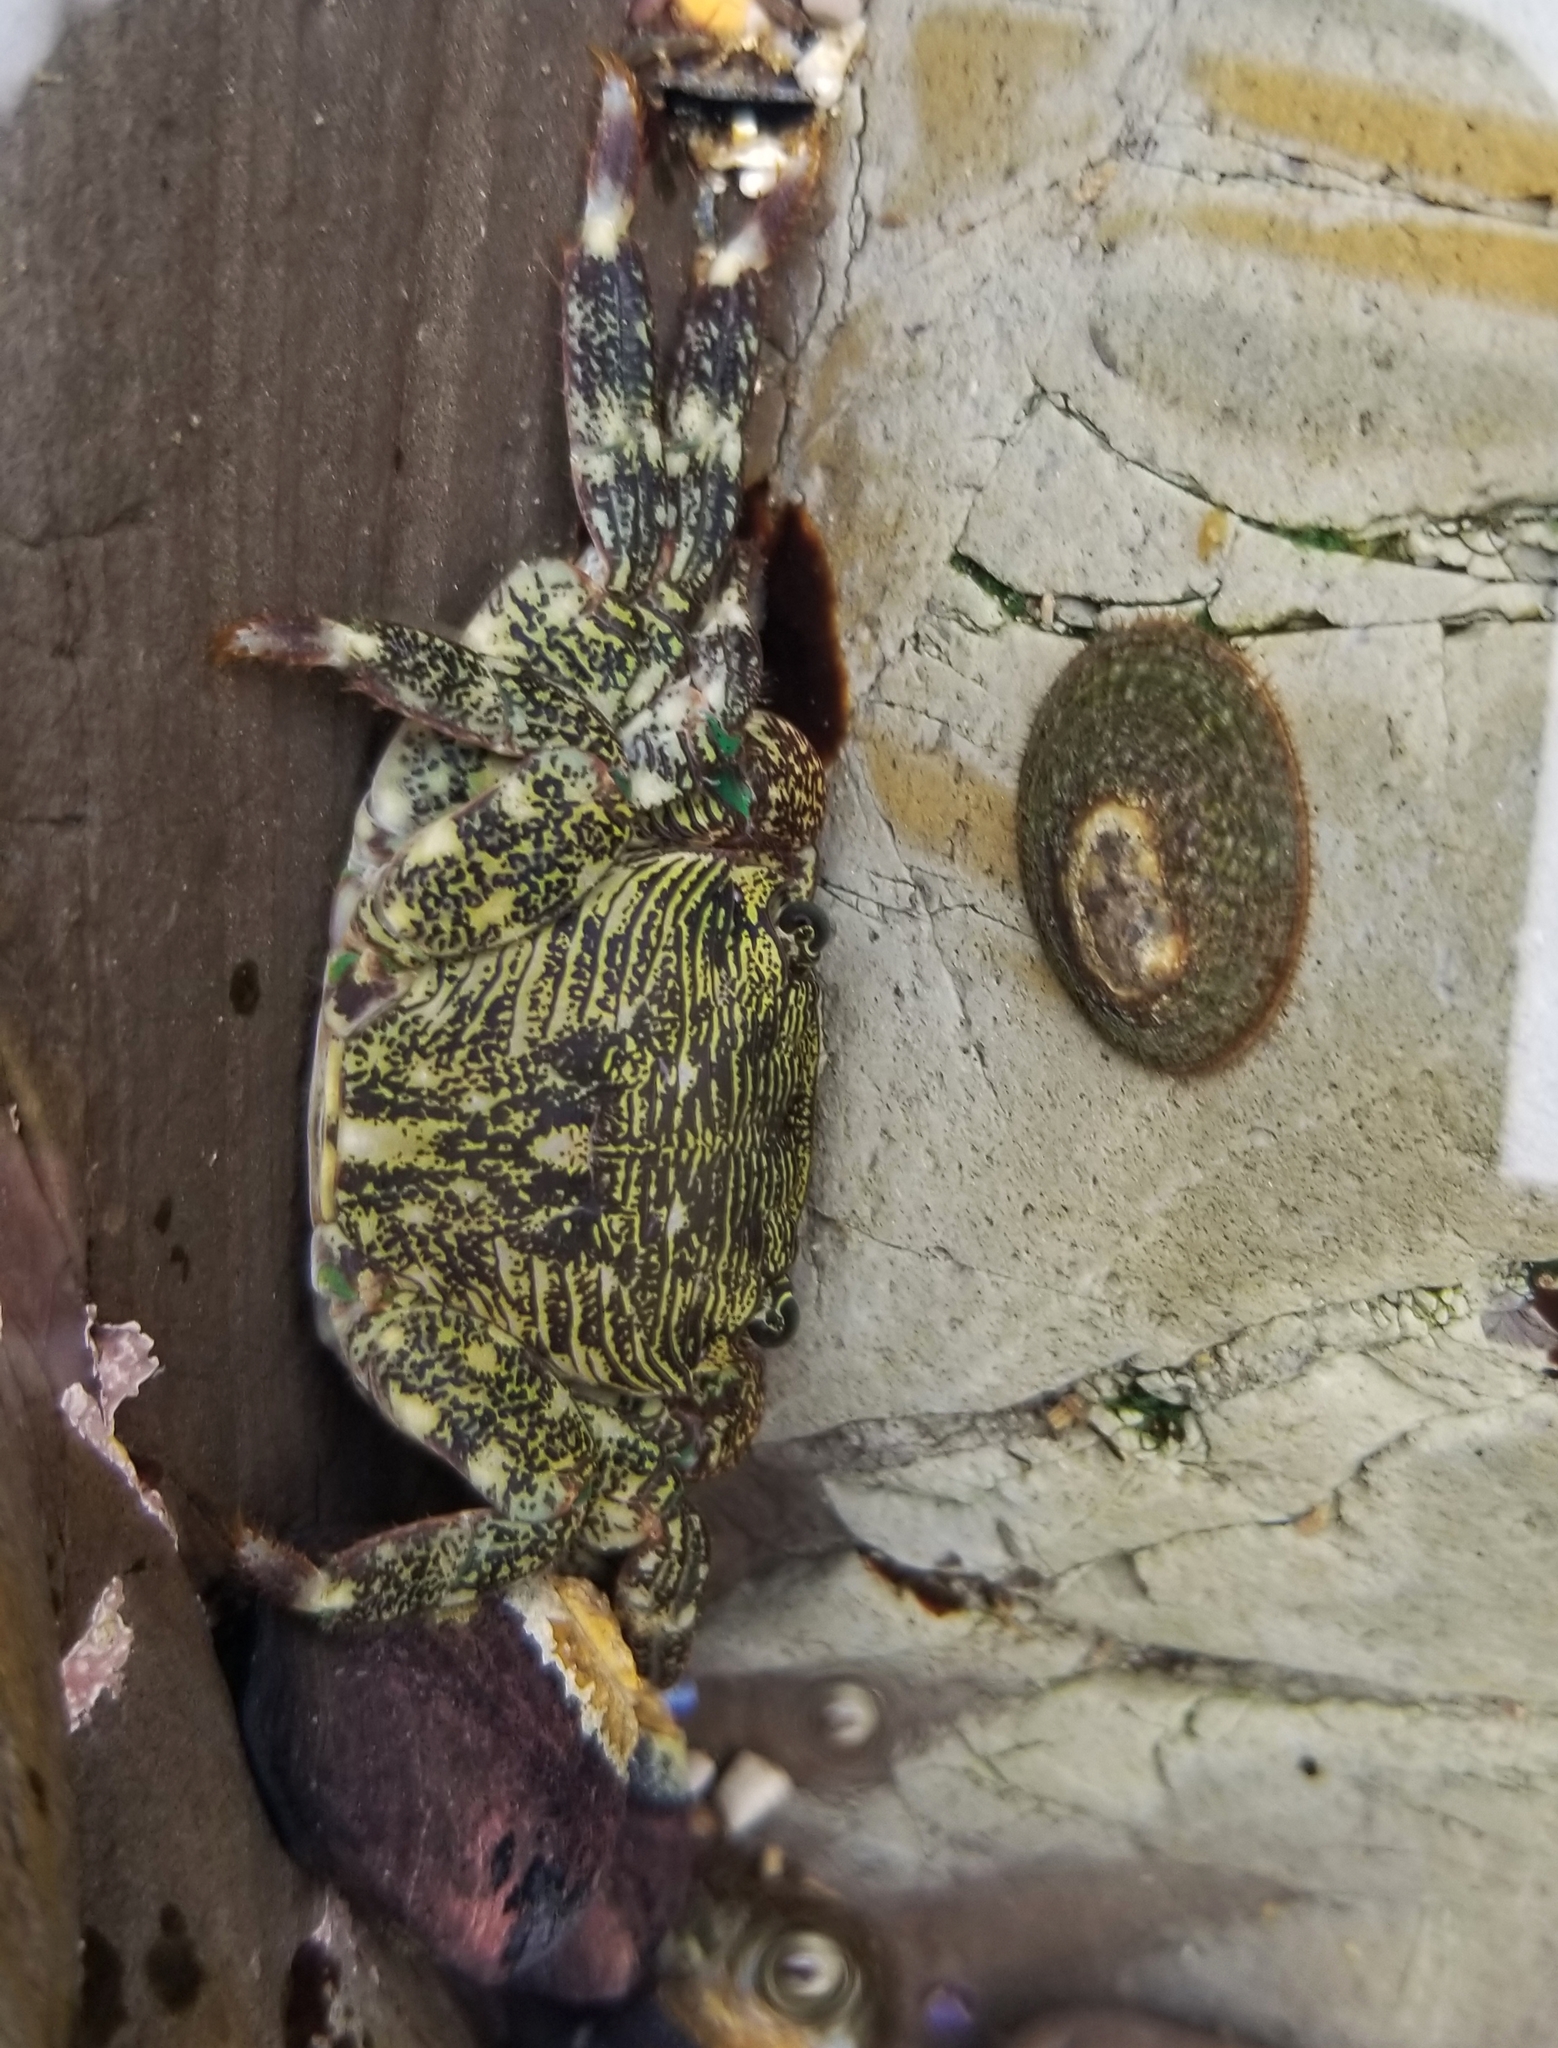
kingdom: Animalia
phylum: Arthropoda
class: Malacostraca
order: Decapoda
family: Grapsidae
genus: Pachygrapsus
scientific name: Pachygrapsus crassipes
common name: Striped shore crab
